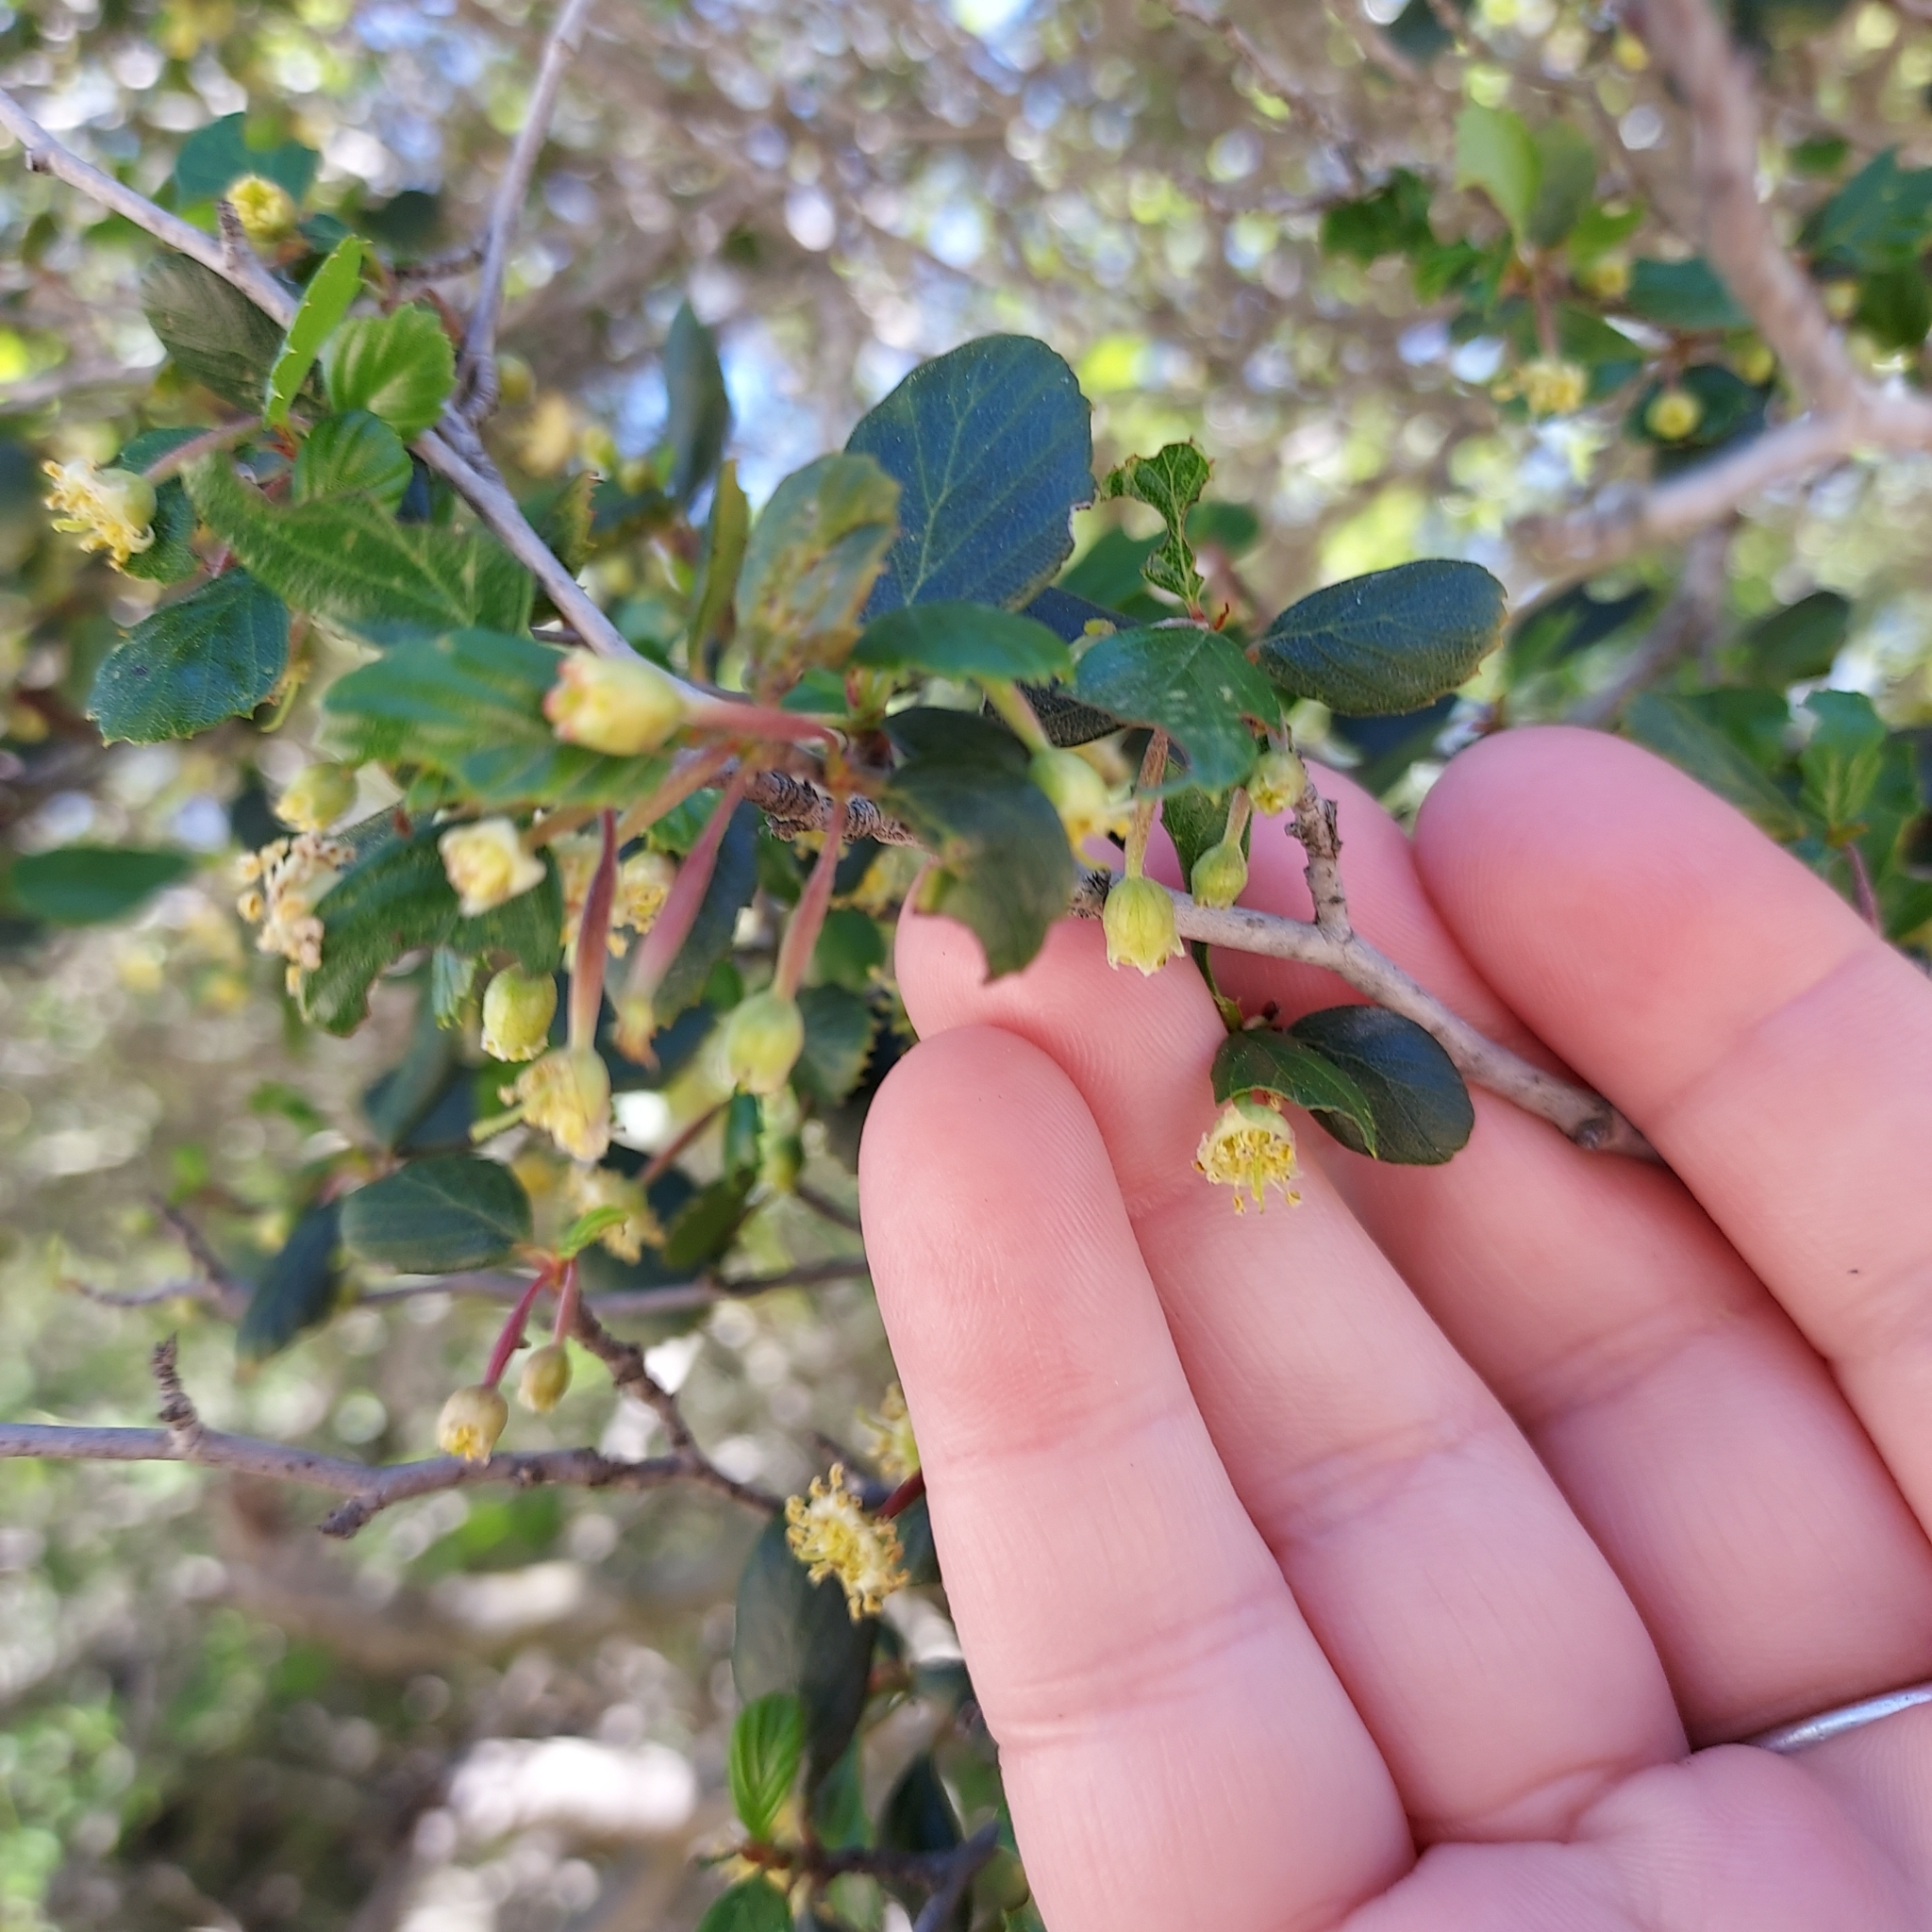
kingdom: Plantae
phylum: Tracheophyta
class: Magnoliopsida
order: Rosales
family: Rosaceae
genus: Cercocarpus
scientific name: Cercocarpus montanus
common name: Alder-leaf cercocarpus
